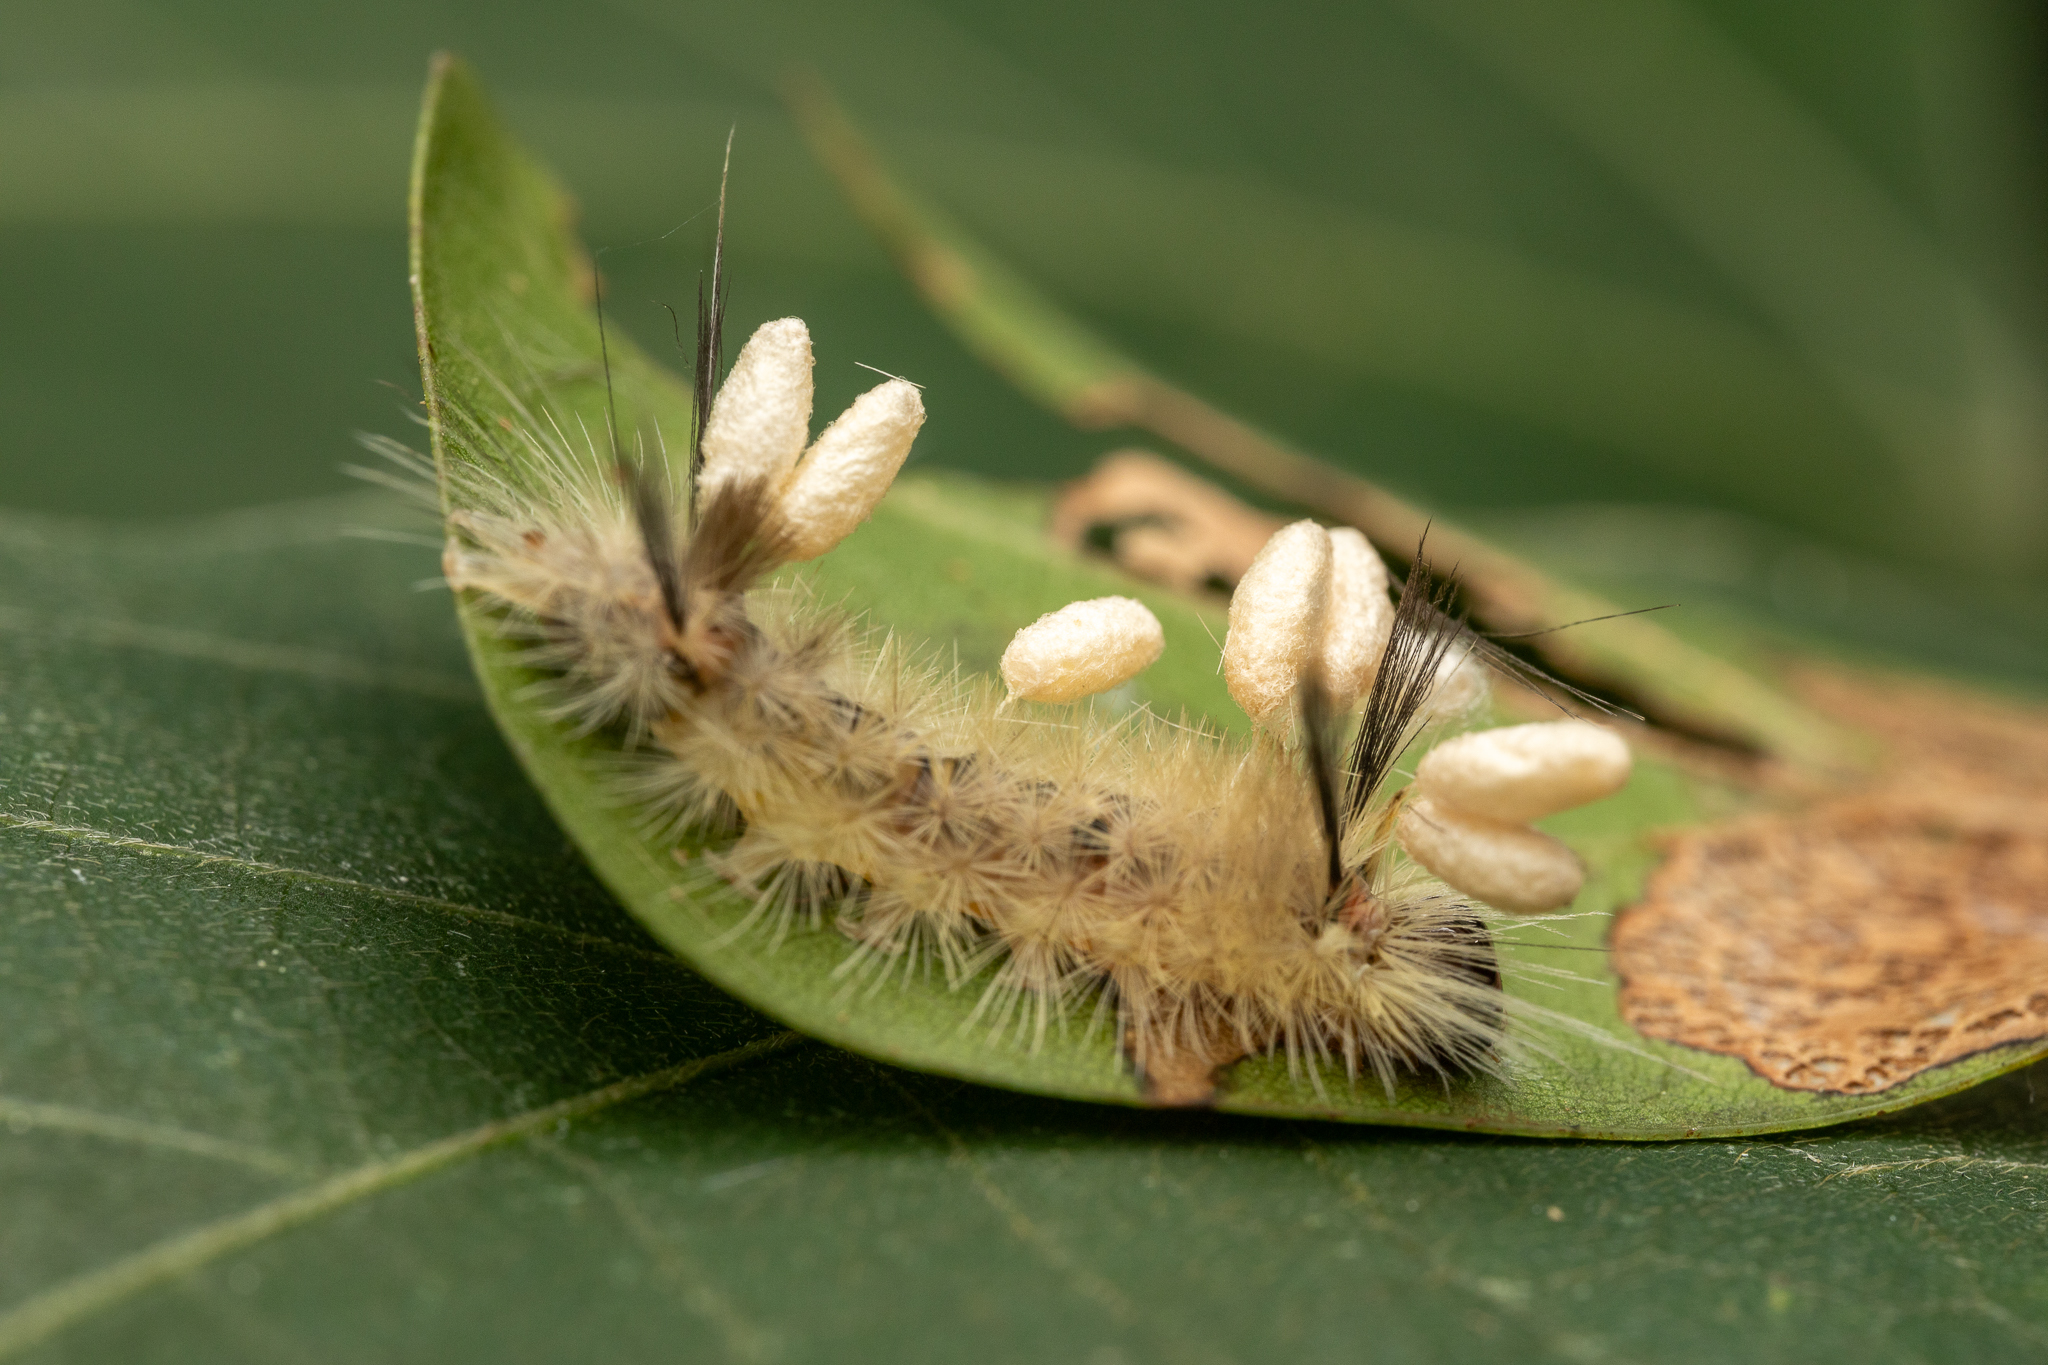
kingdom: Animalia
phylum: Arthropoda
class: Insecta
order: Lepidoptera
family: Erebidae
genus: Halysidota
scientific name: Halysidota tessellaris
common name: Banded tussock moth
